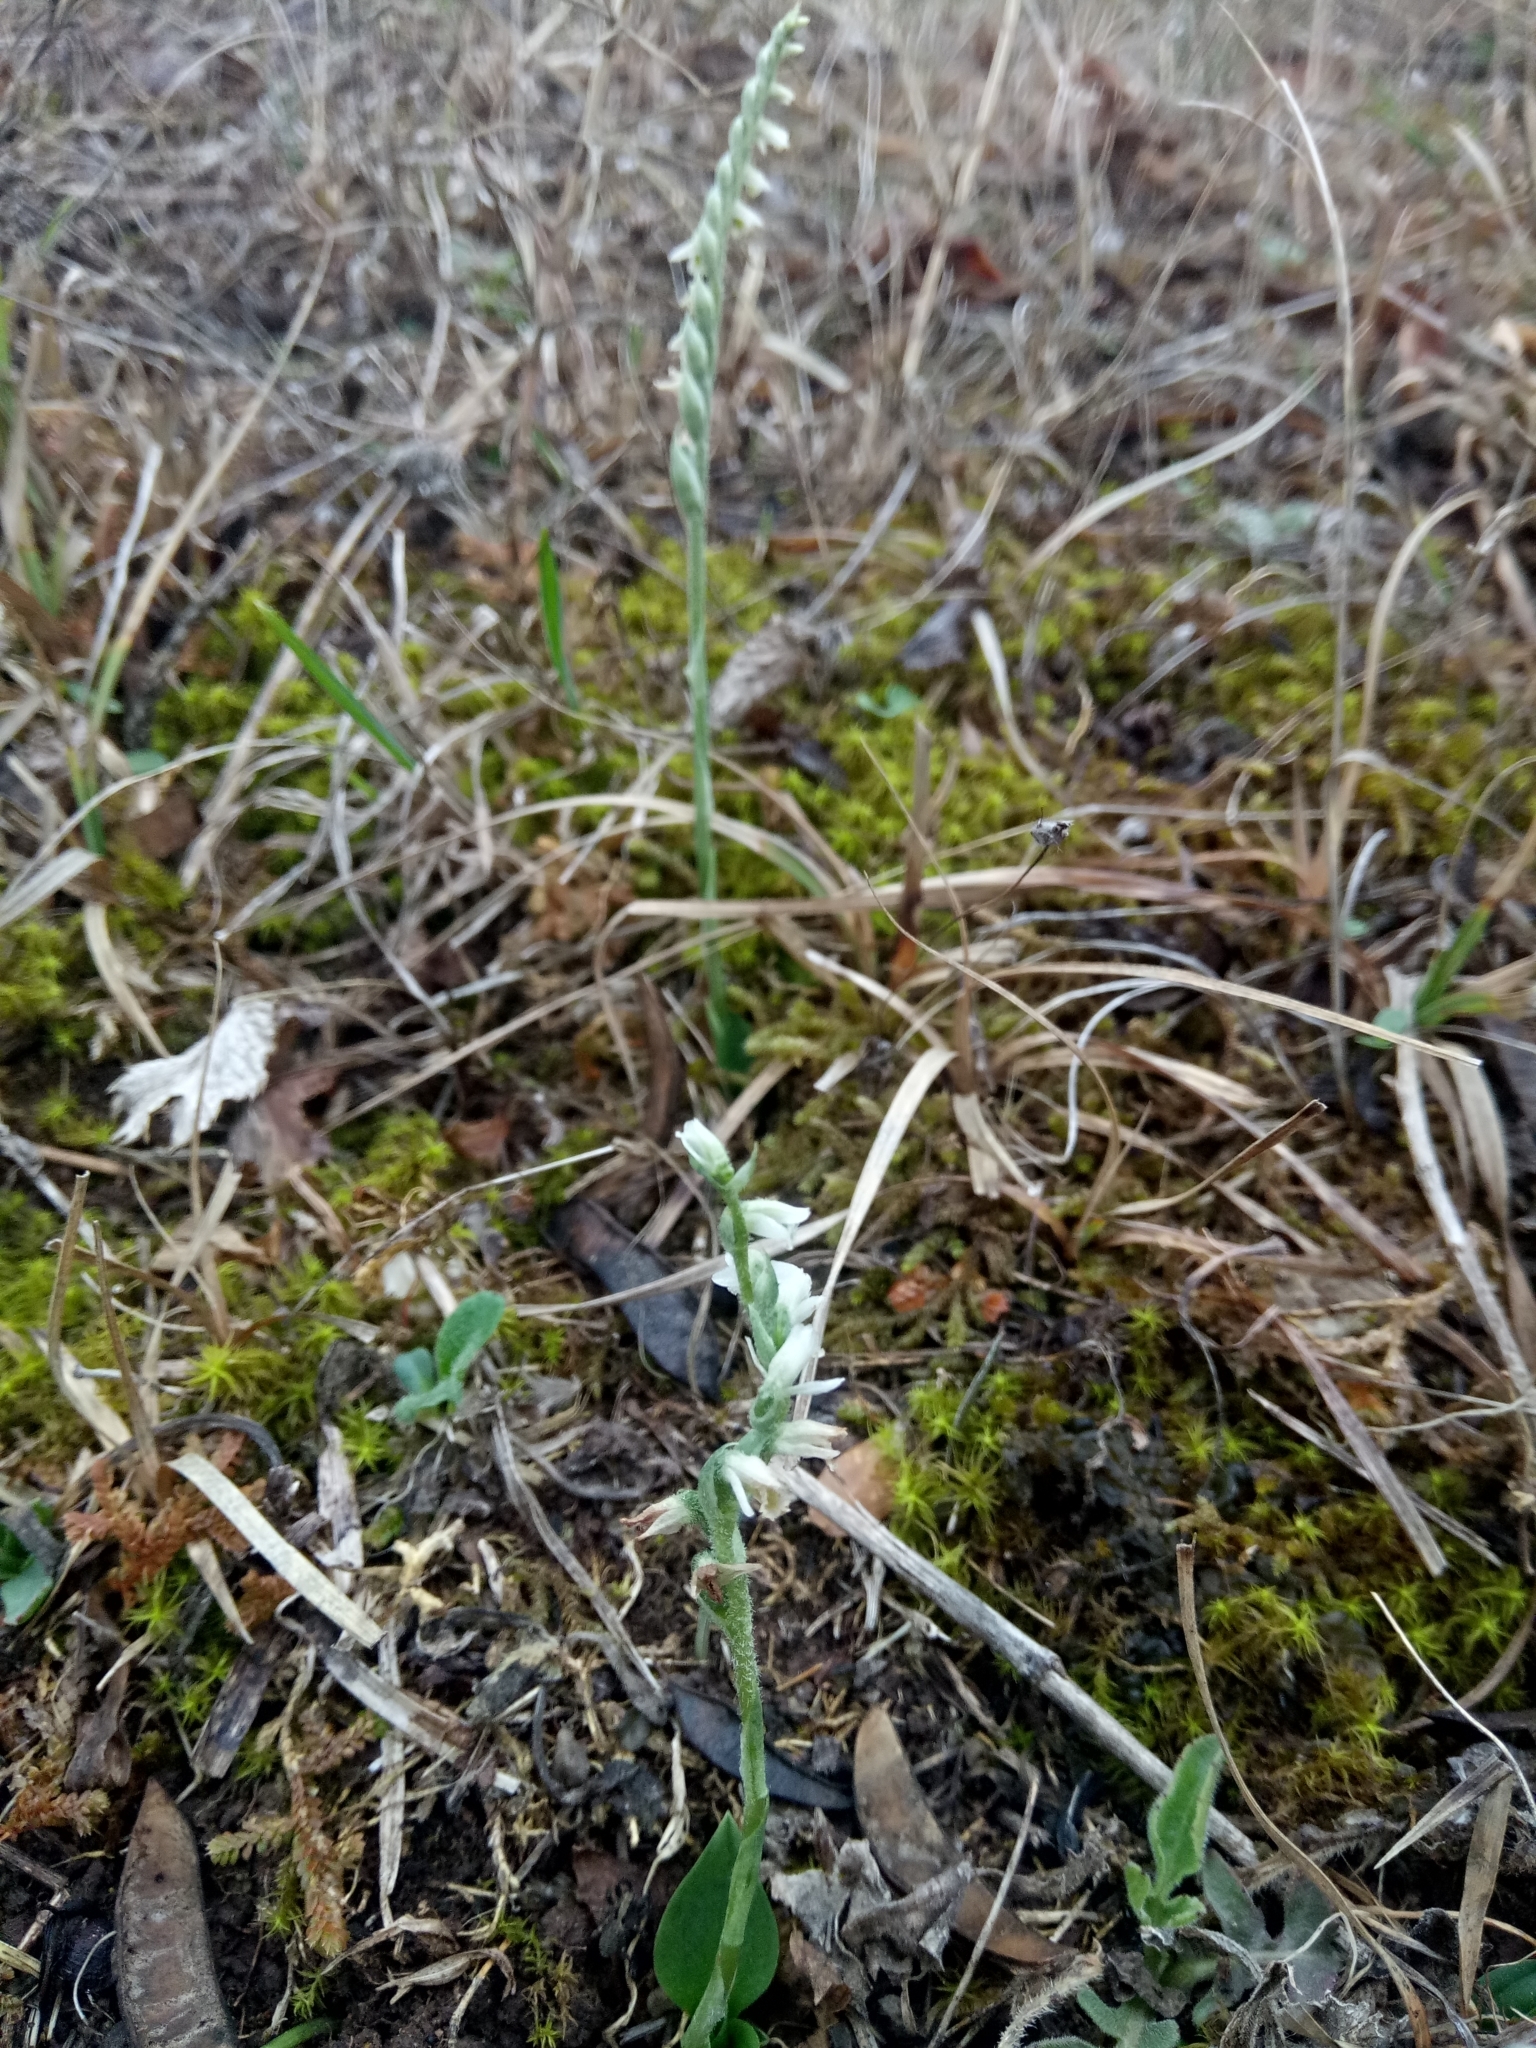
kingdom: Plantae
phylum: Tracheophyta
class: Liliopsida
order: Asparagales
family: Orchidaceae
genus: Spiranthes
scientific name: Spiranthes spiralis
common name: Autumn lady's-tresses
